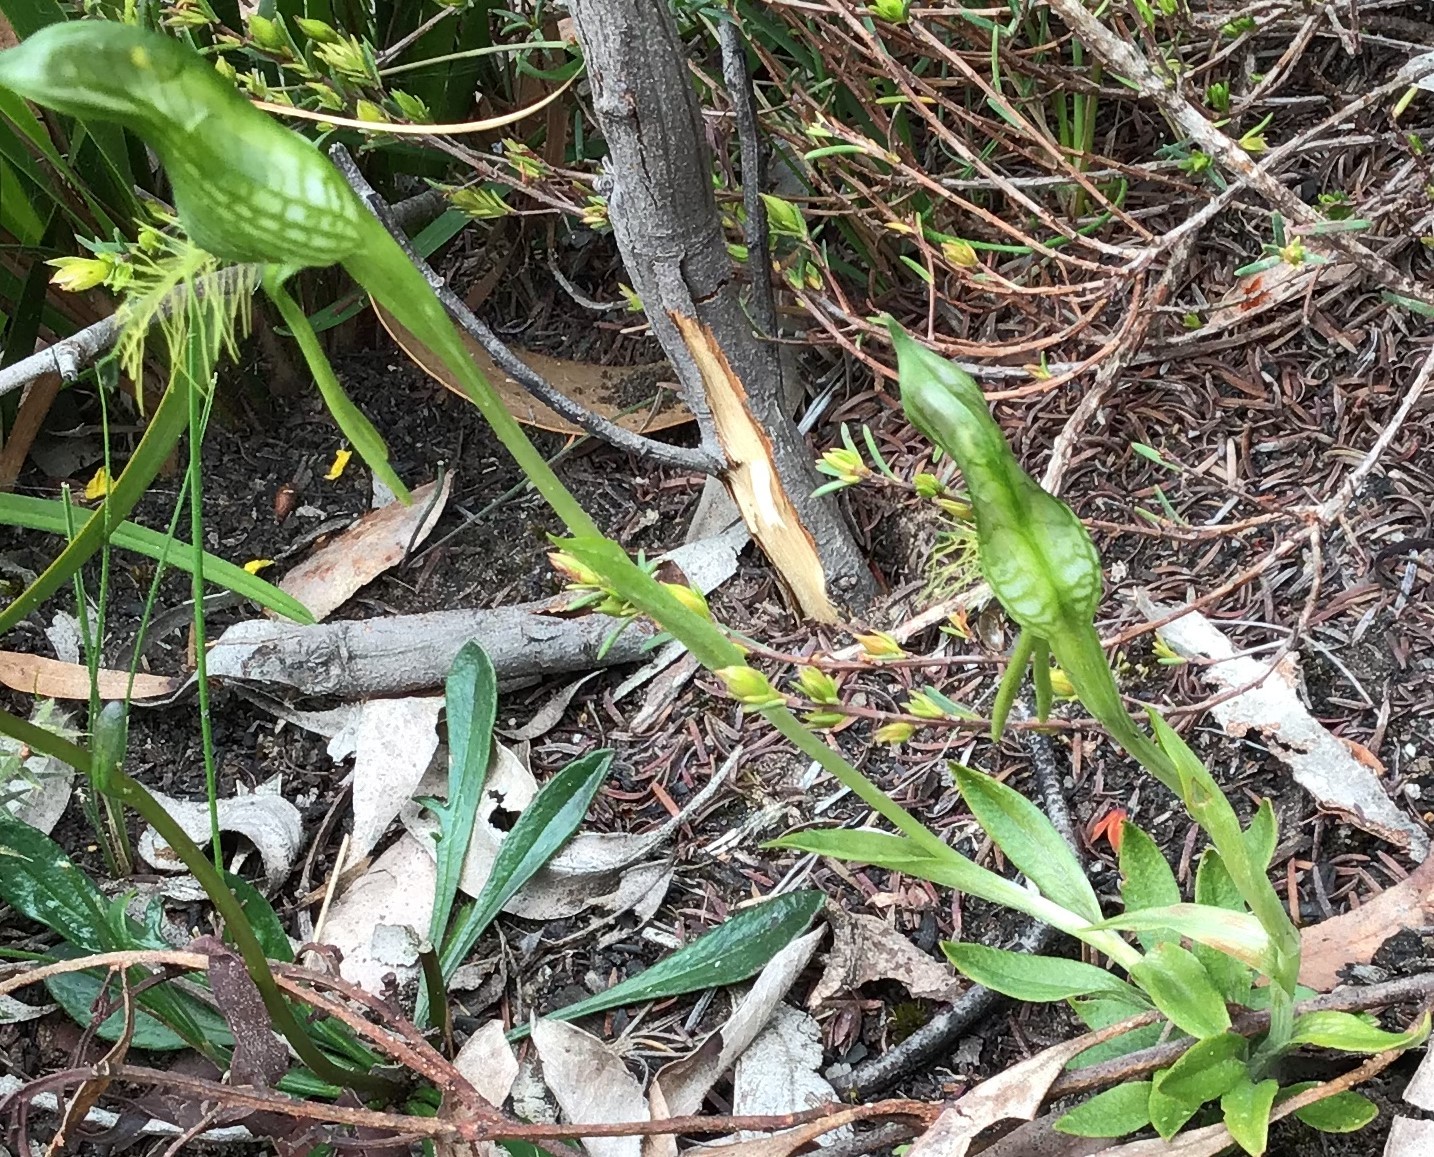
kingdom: Plantae
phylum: Tracheophyta
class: Liliopsida
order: Asparagales
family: Orchidaceae
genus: Pterostylis
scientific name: Pterostylis plumosa
